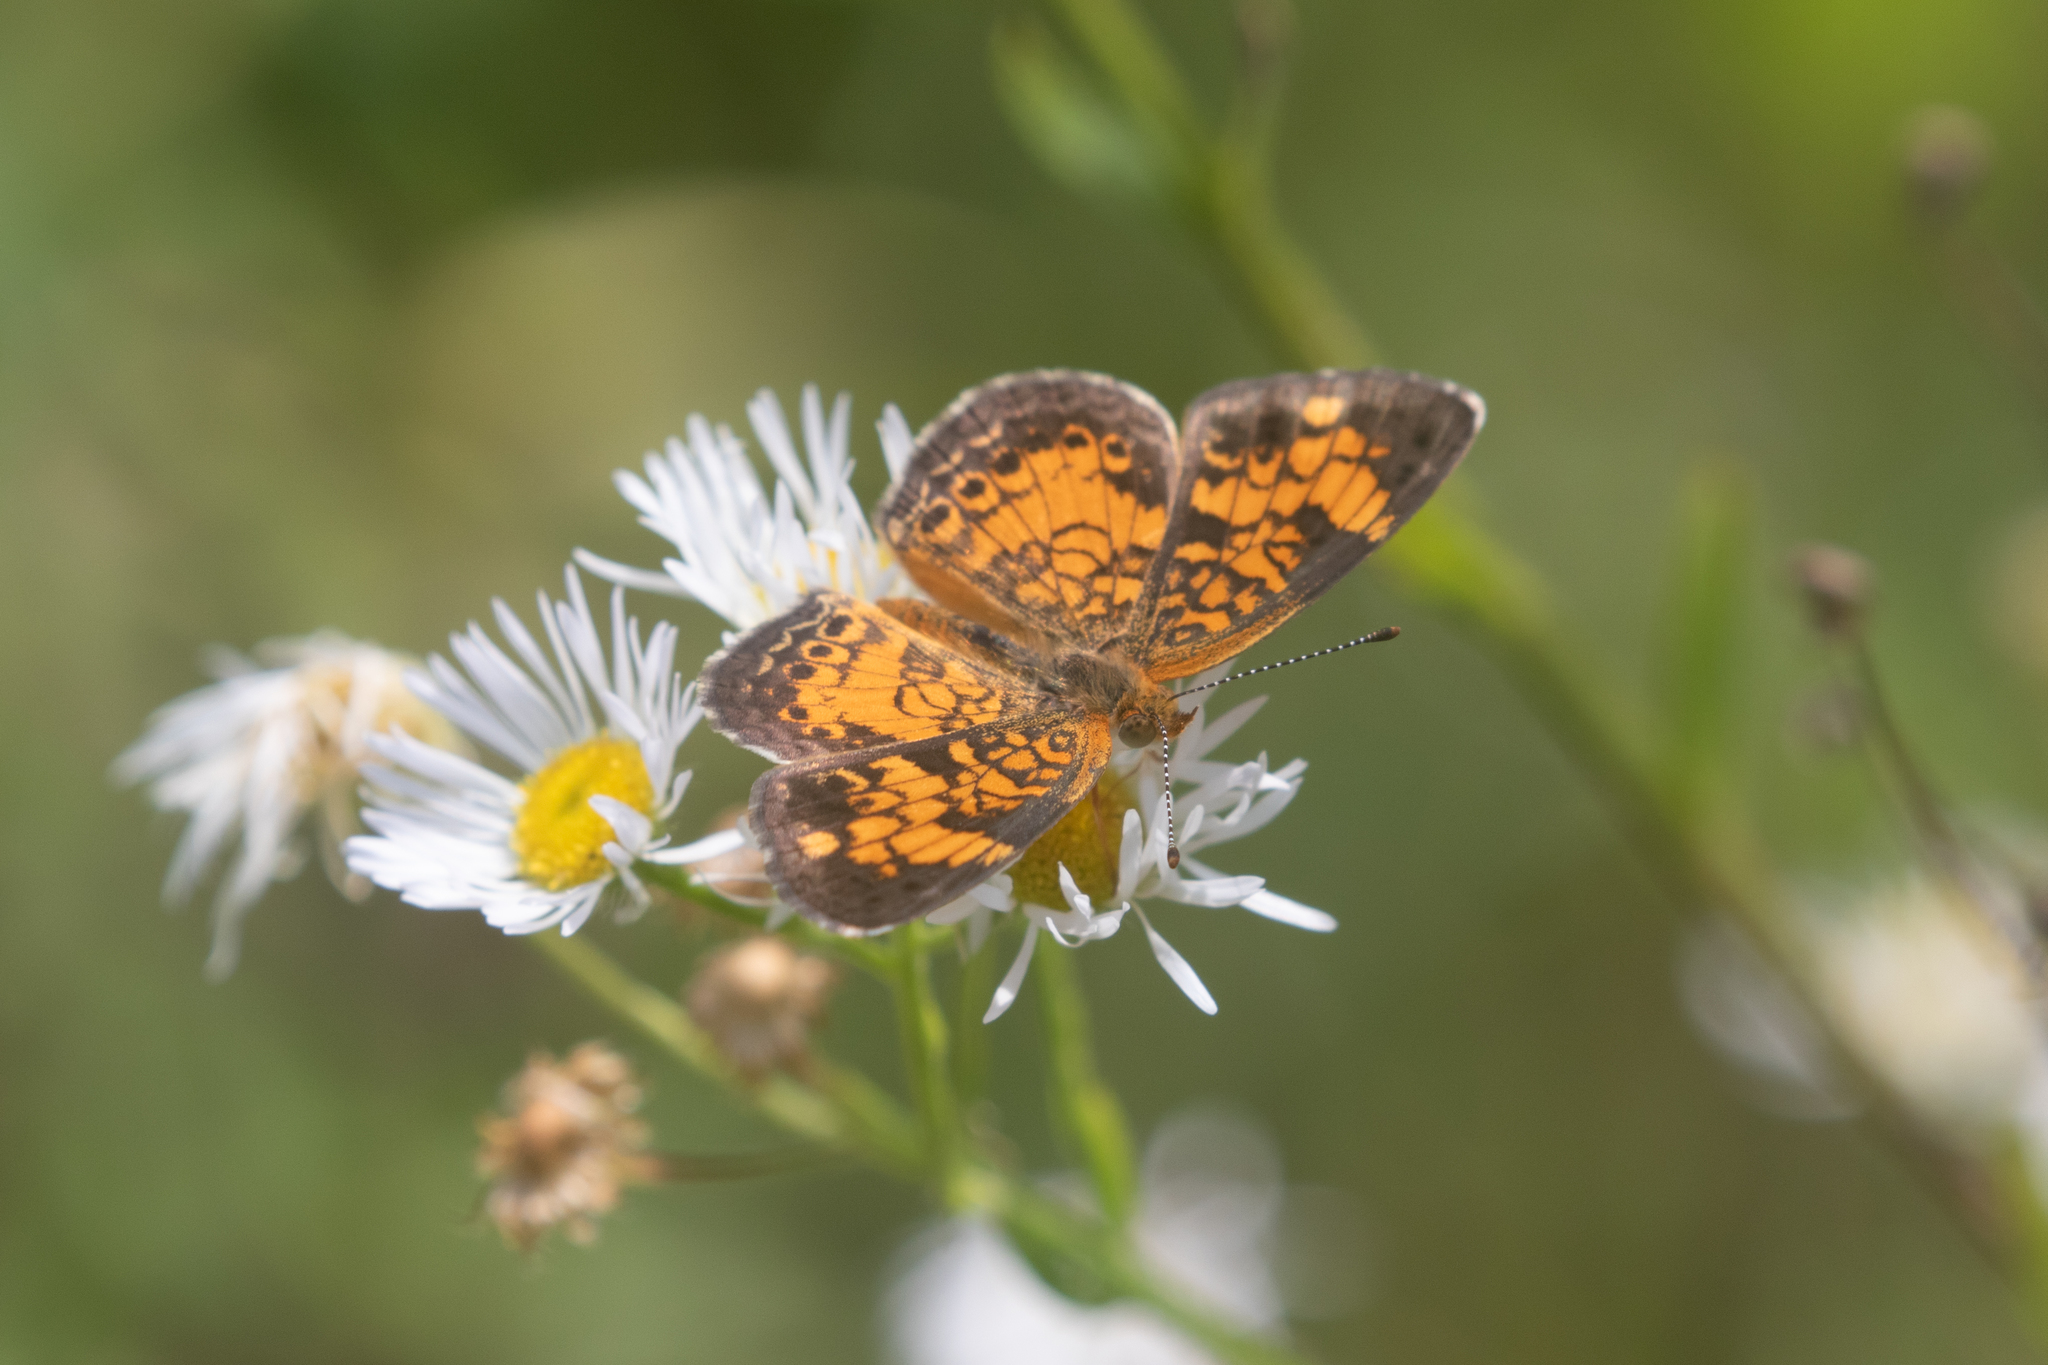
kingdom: Animalia
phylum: Arthropoda
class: Insecta
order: Lepidoptera
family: Nymphalidae
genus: Phyciodes
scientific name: Phyciodes tharos
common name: Pearl crescent
